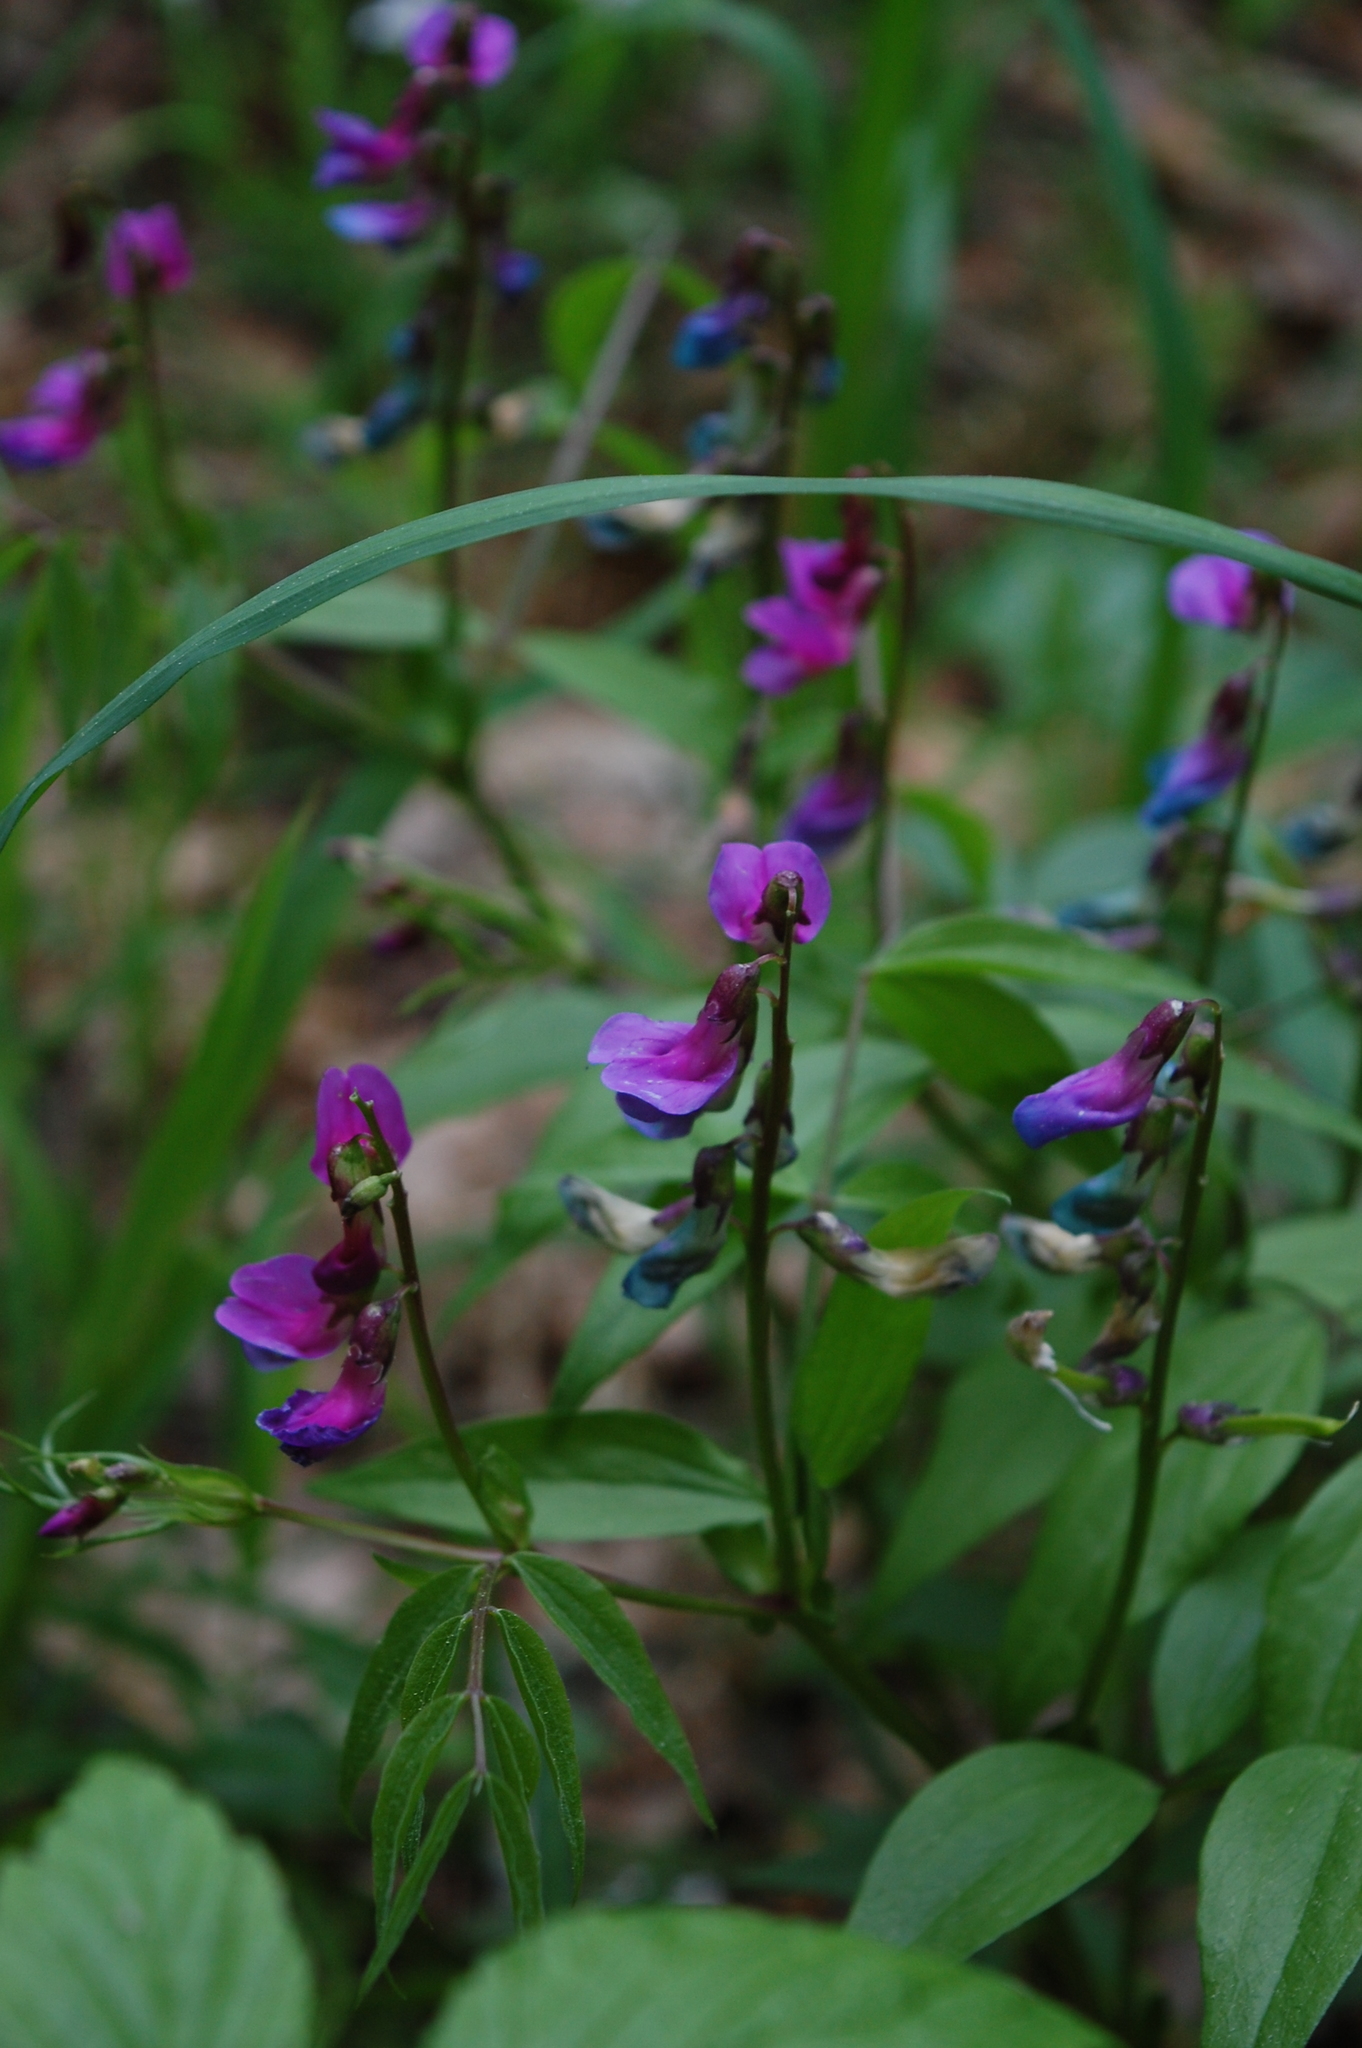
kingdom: Plantae
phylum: Tracheophyta
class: Magnoliopsida
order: Fabales
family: Fabaceae
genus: Lathyrus
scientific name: Lathyrus vernus
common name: Spring pea
